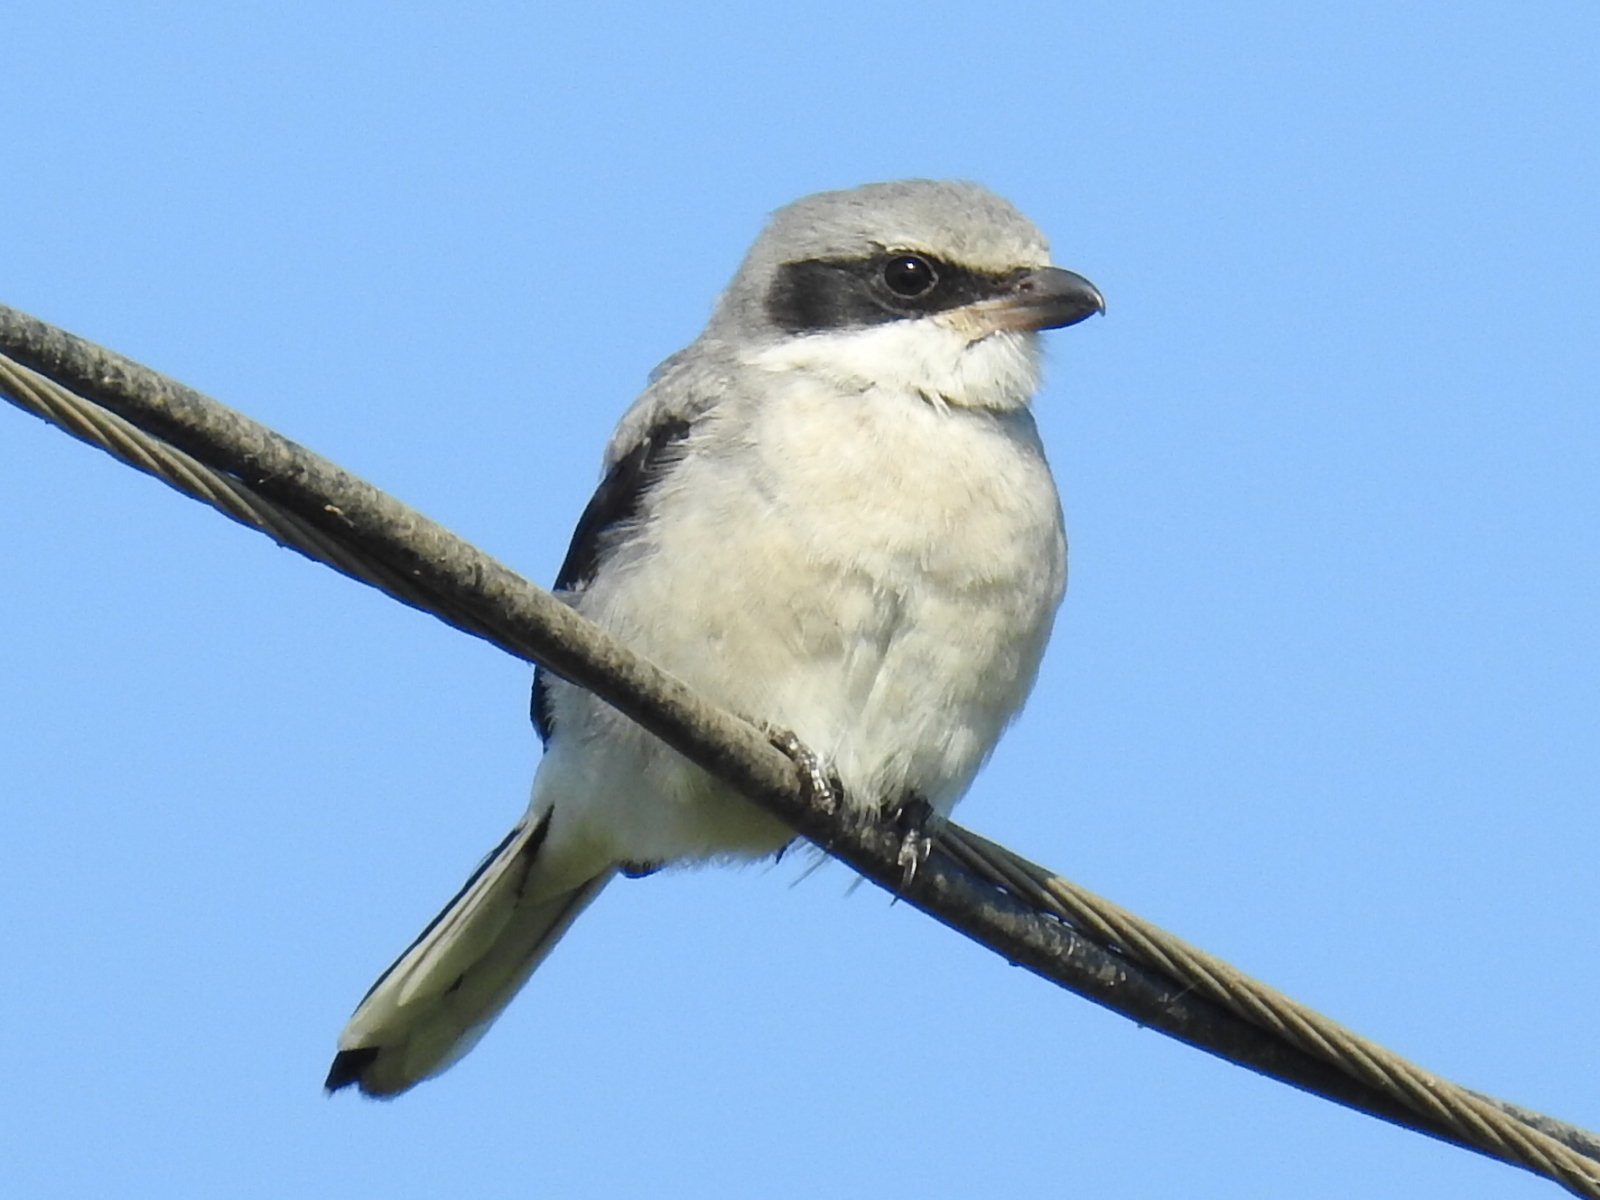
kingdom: Animalia
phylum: Chordata
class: Aves
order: Passeriformes
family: Laniidae
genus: Lanius
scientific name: Lanius ludovicianus
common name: Loggerhead shrike
